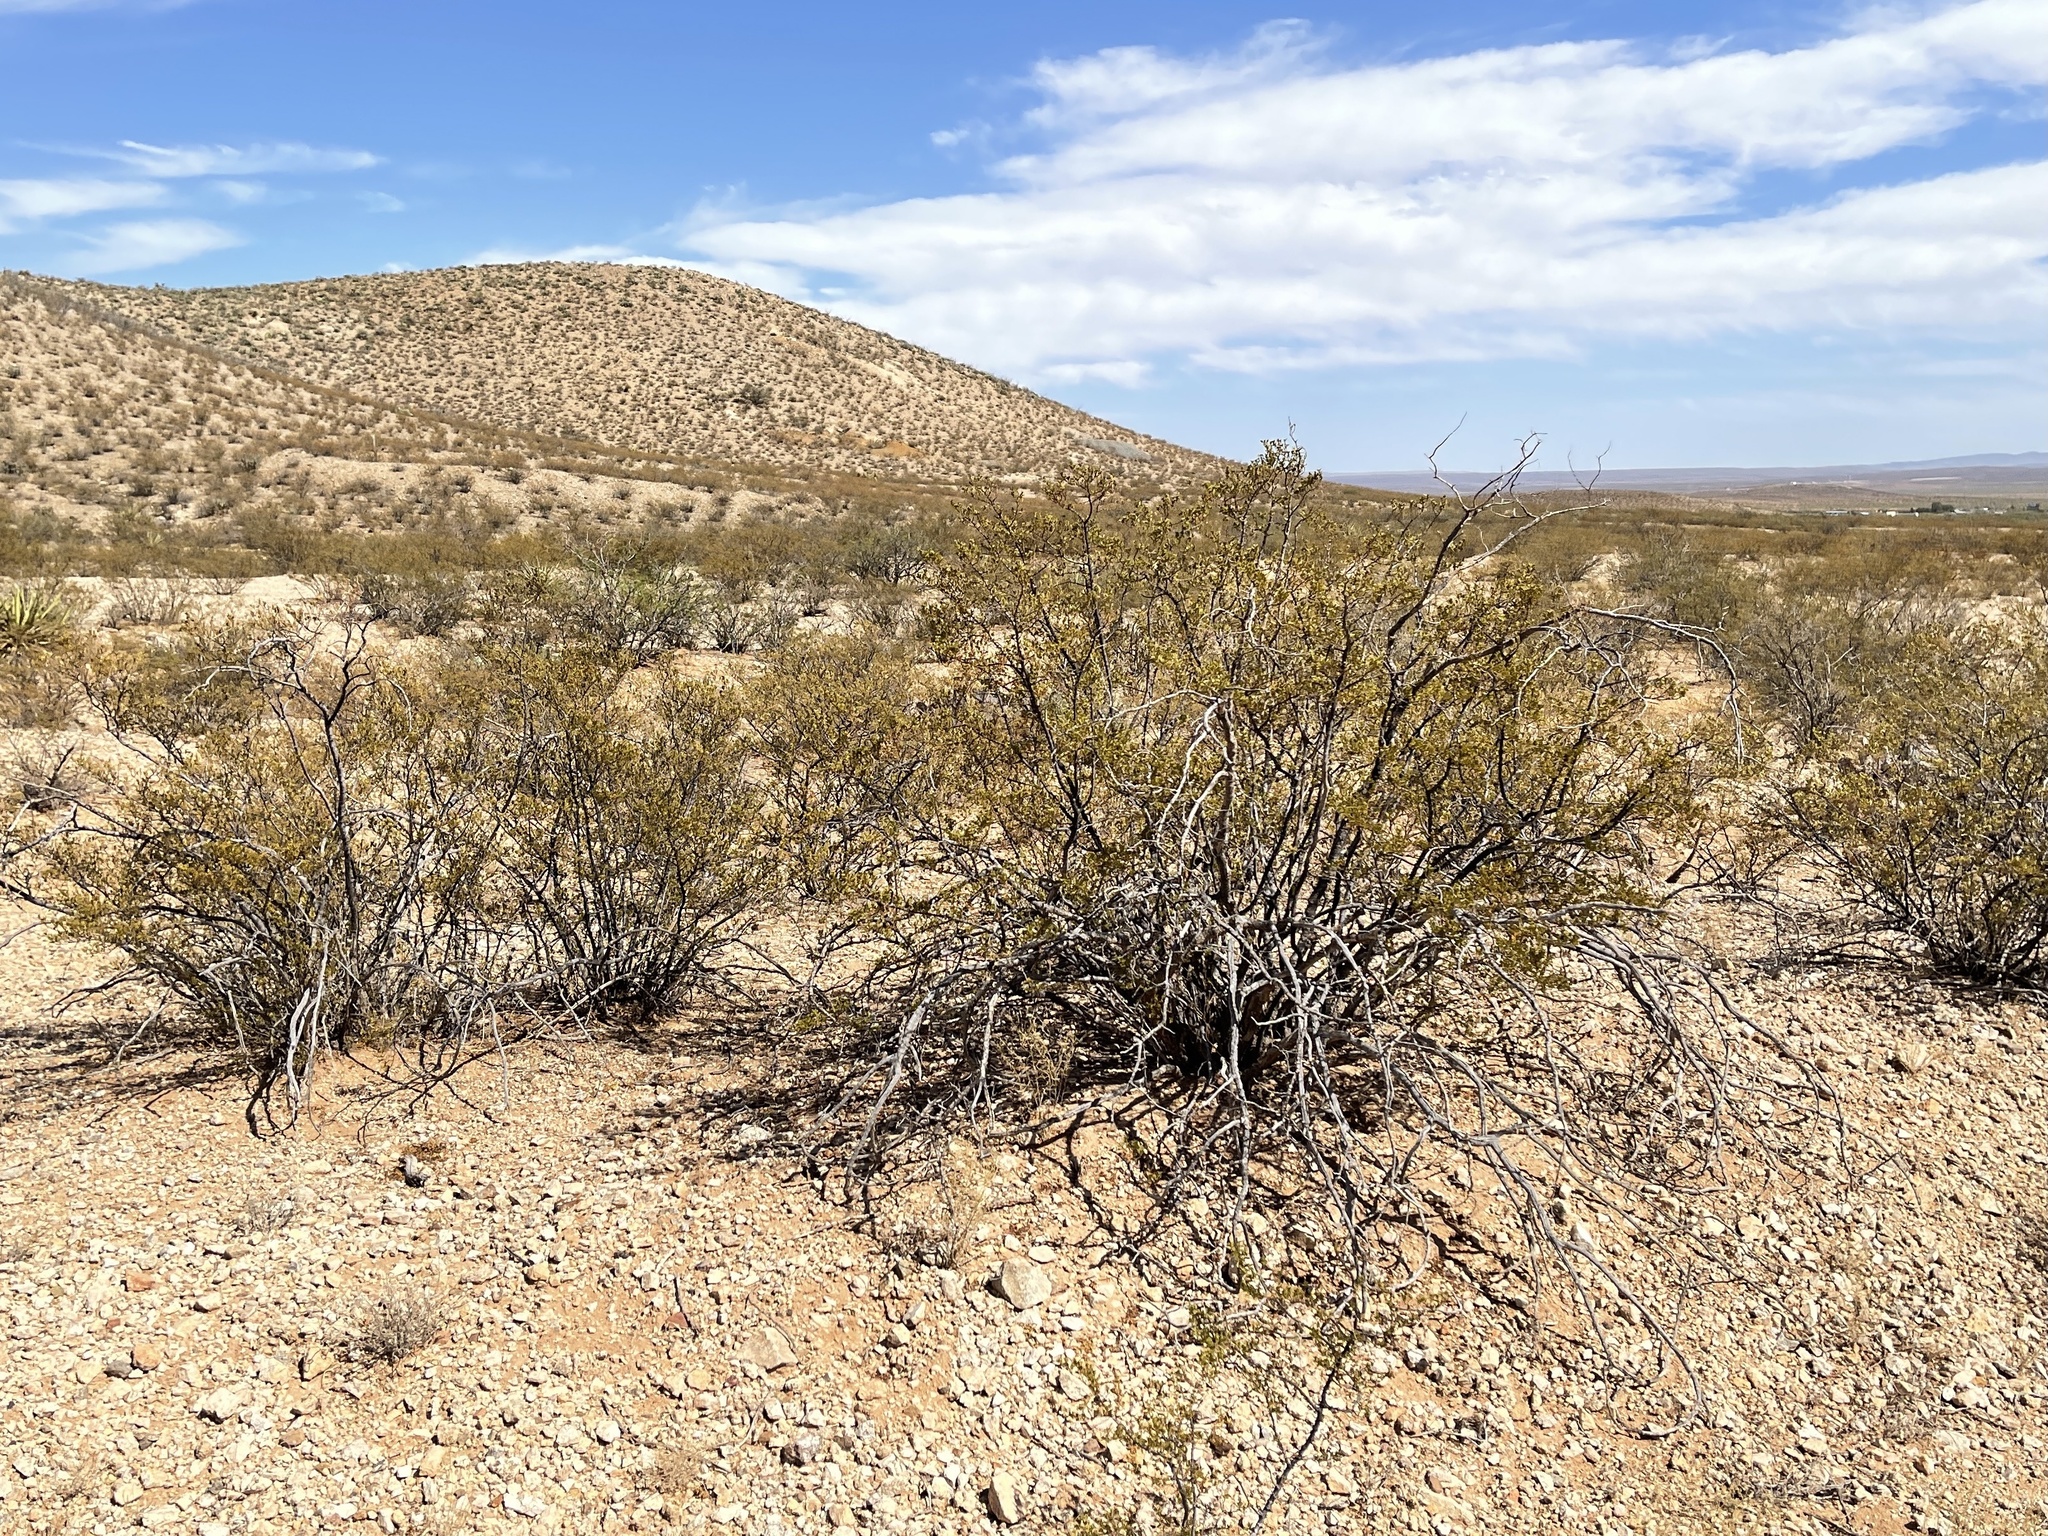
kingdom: Plantae
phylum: Tracheophyta
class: Magnoliopsida
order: Zygophyllales
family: Zygophyllaceae
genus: Larrea
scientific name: Larrea tridentata
